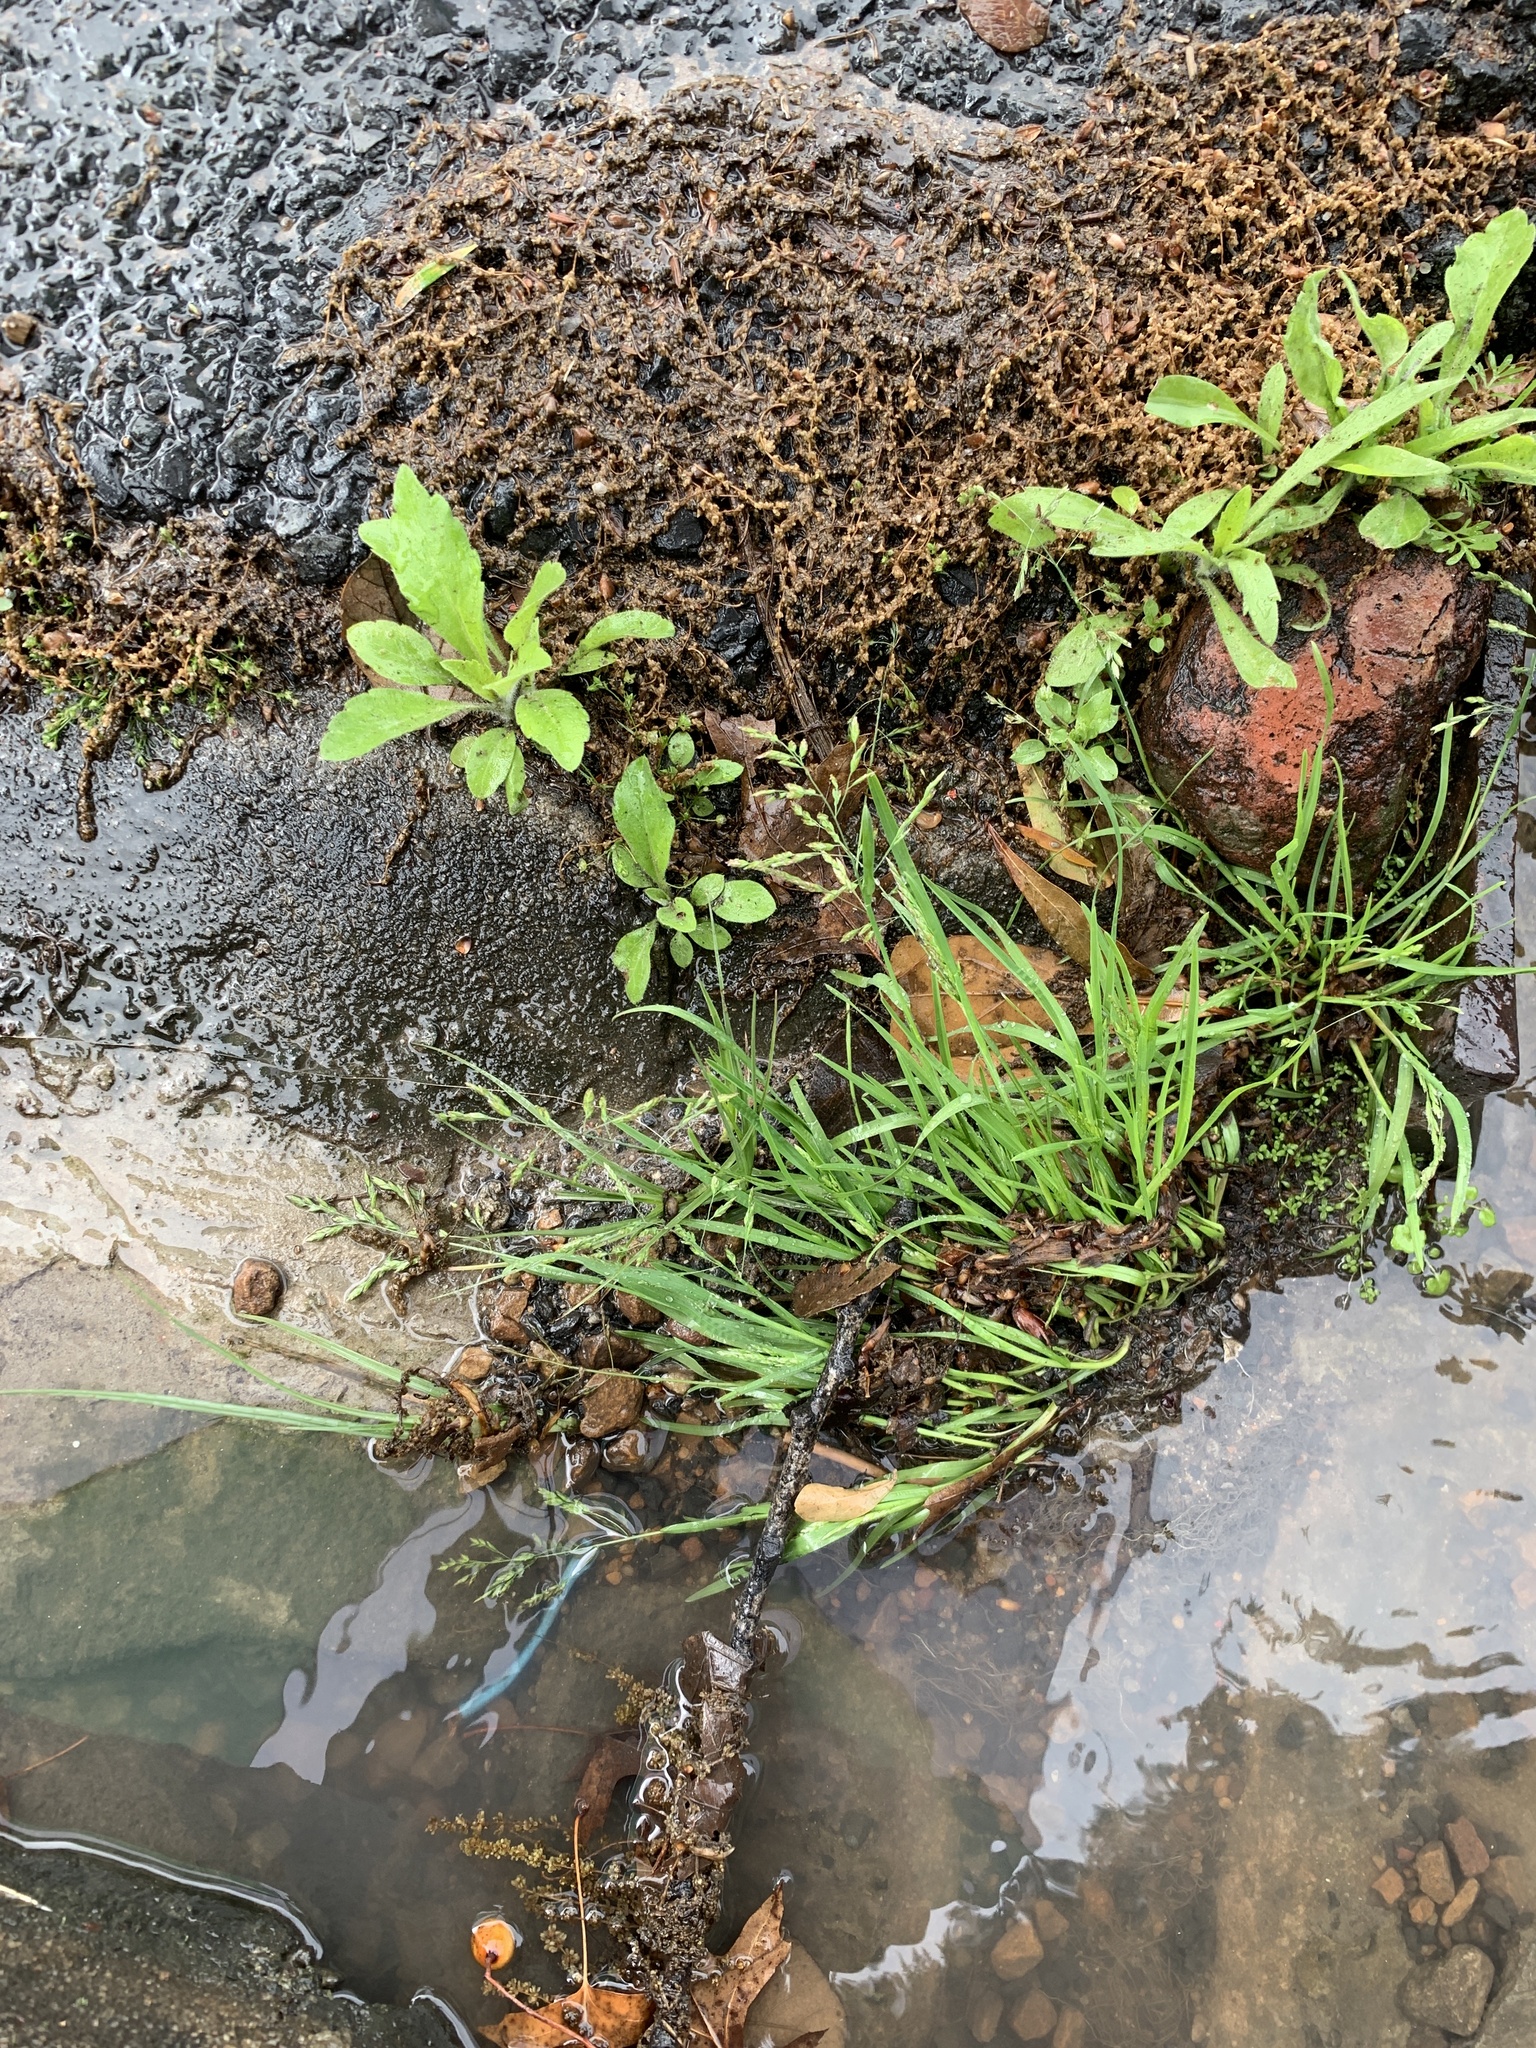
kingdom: Plantae
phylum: Tracheophyta
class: Liliopsida
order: Poales
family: Poaceae
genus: Poa
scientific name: Poa annua
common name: Annual bluegrass
